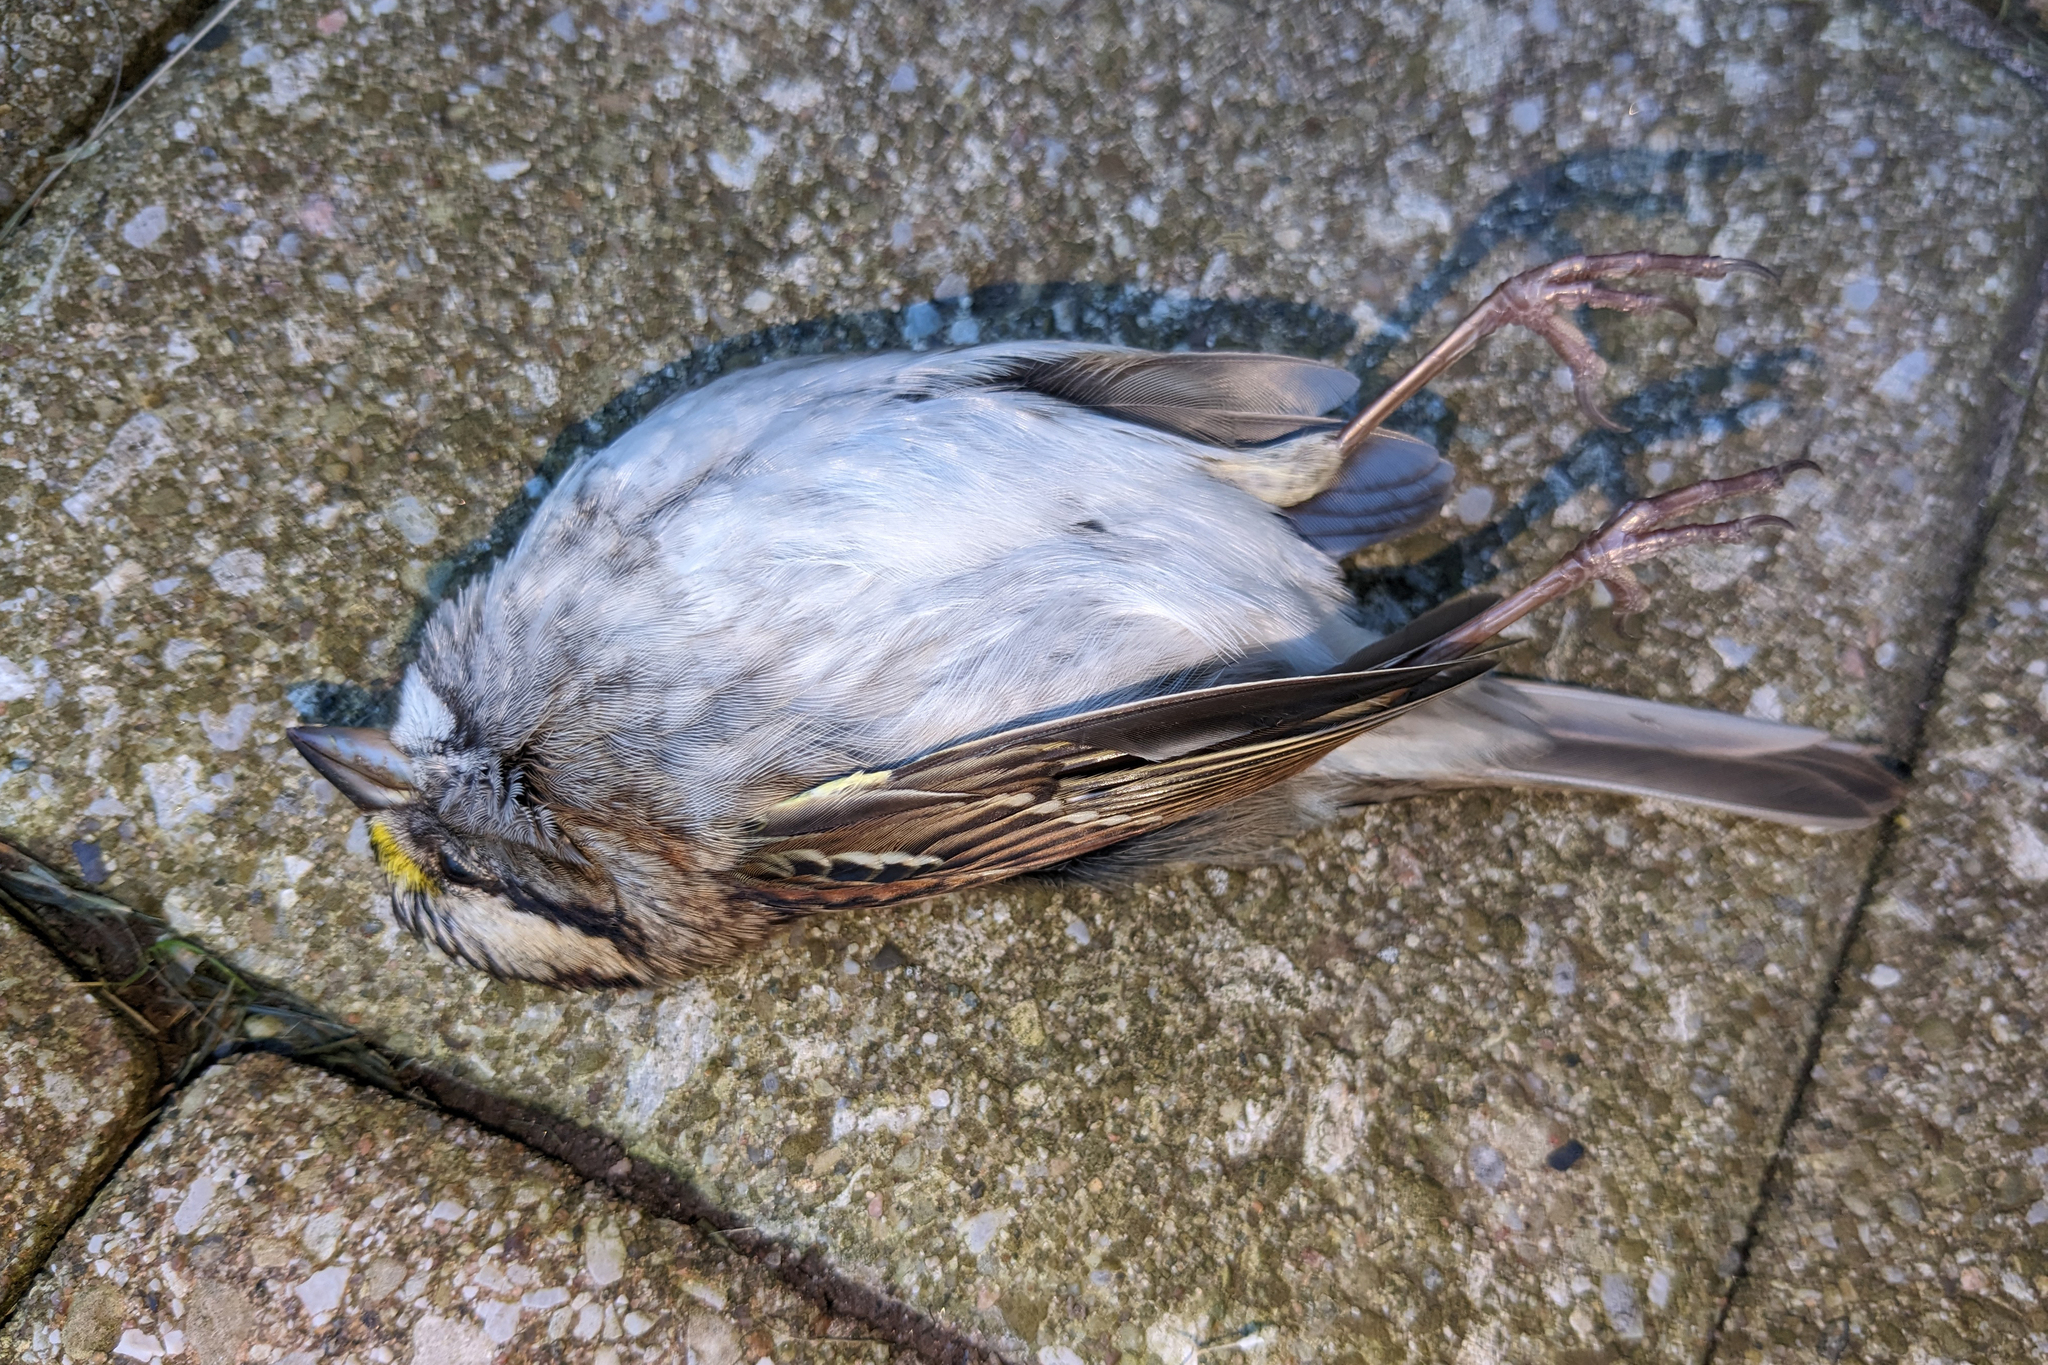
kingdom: Animalia
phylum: Chordata
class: Aves
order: Passeriformes
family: Passerellidae
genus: Zonotrichia
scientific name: Zonotrichia albicollis
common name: White-throated sparrow
